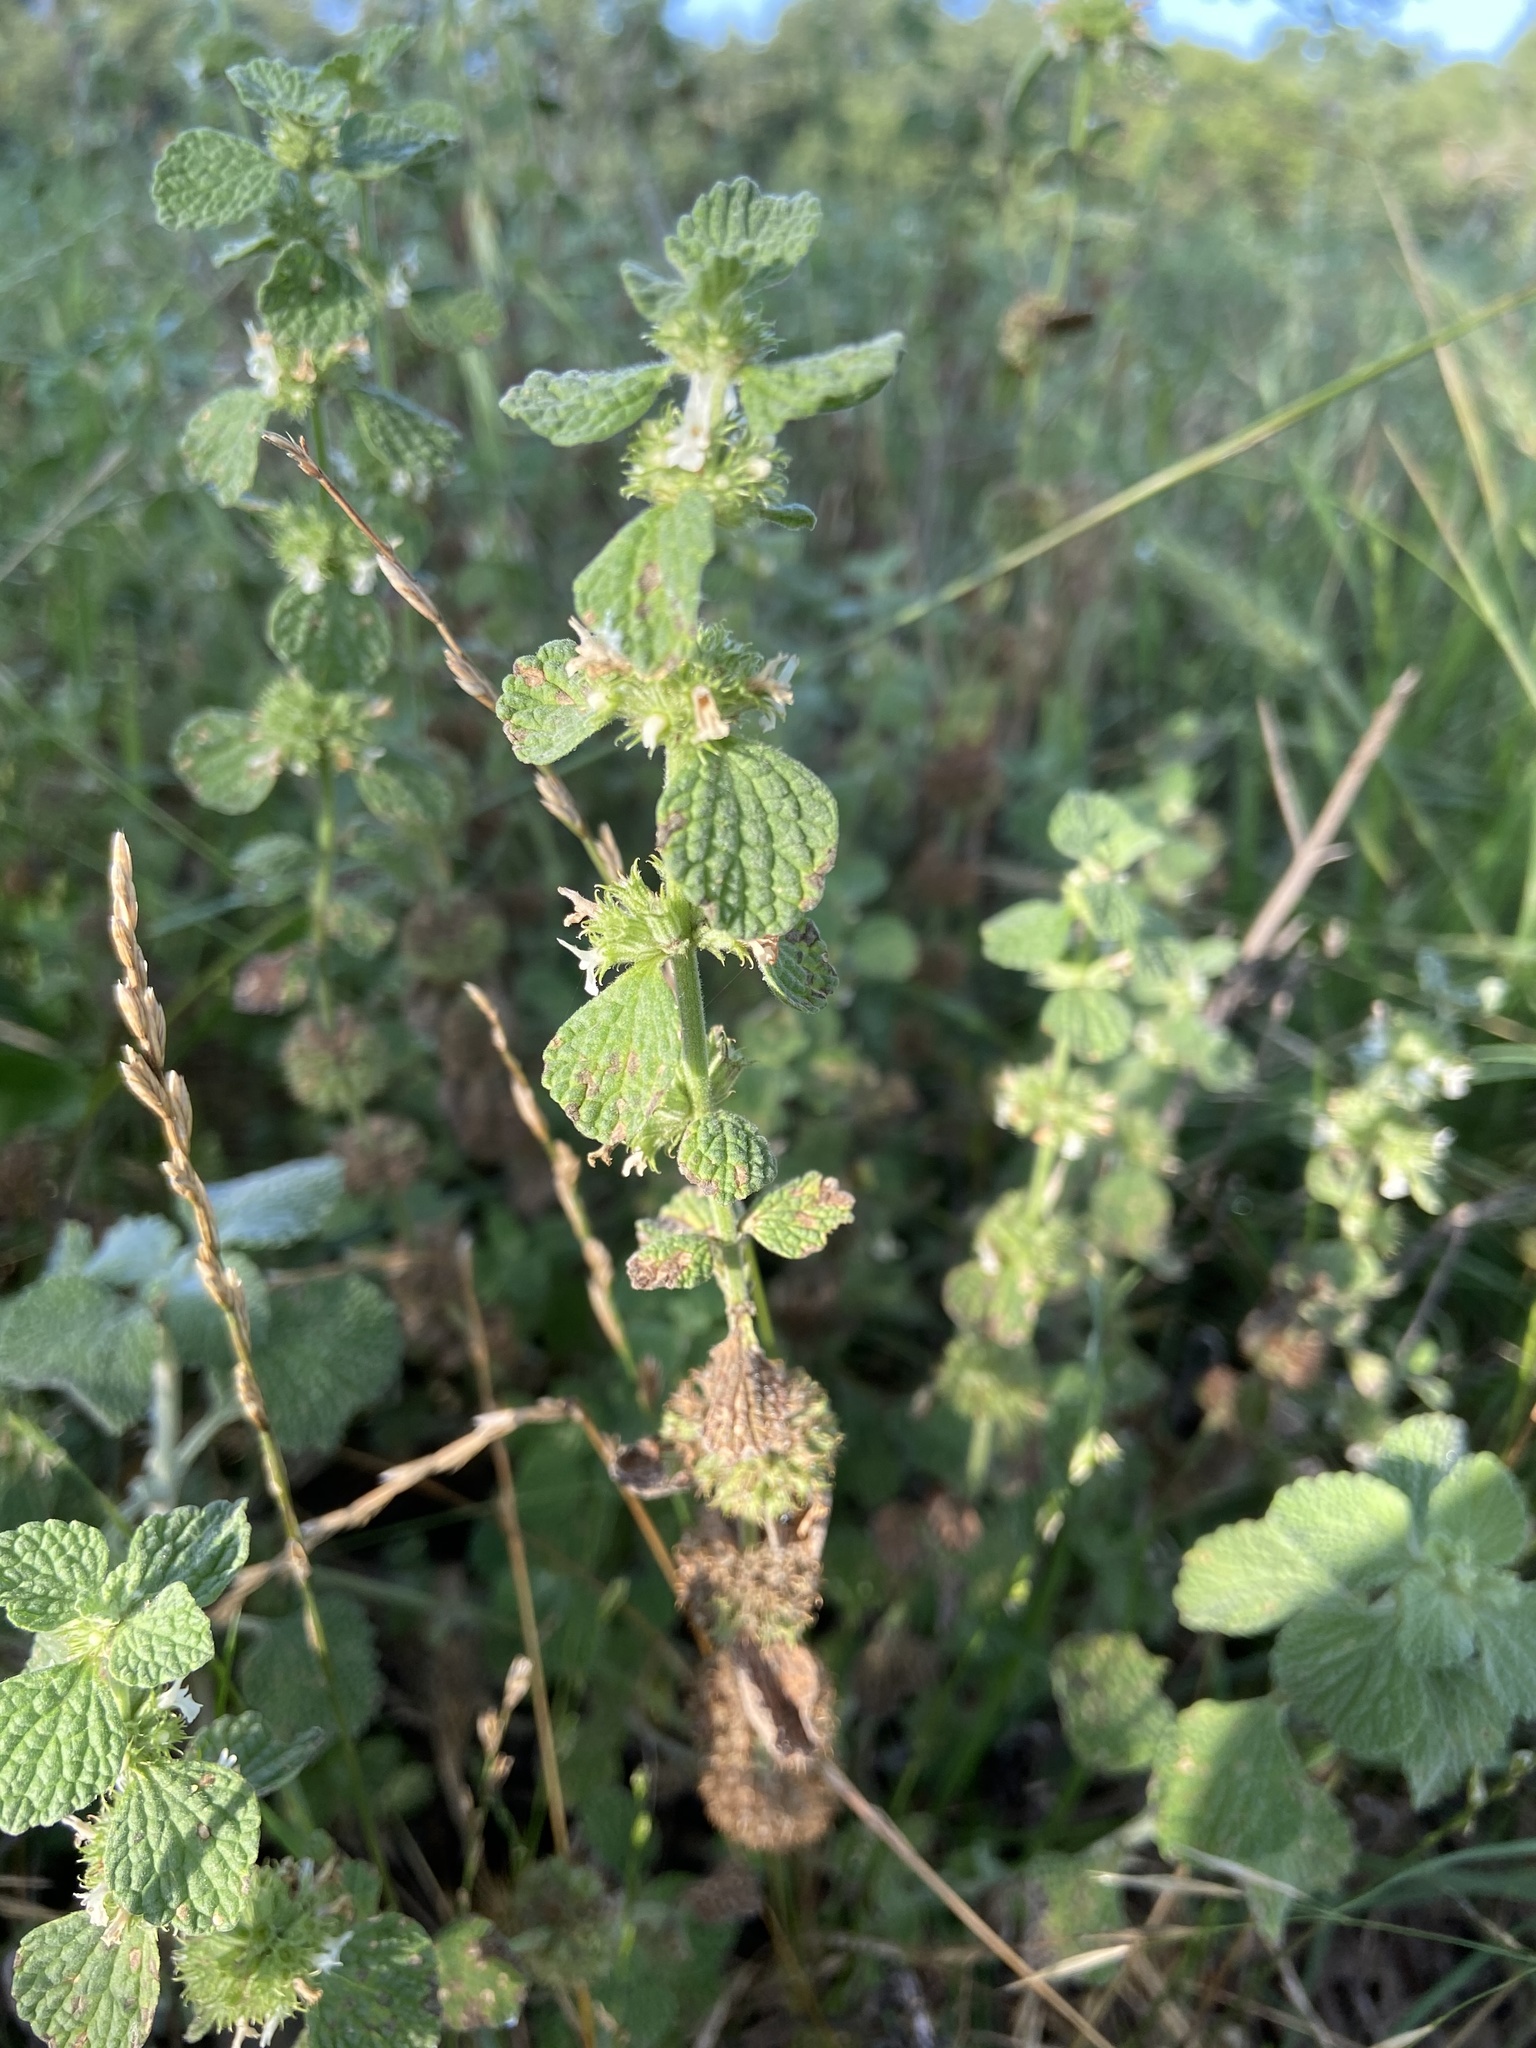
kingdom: Plantae
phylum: Tracheophyta
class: Magnoliopsida
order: Lamiales
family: Lamiaceae
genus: Marrubium
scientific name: Marrubium vulgare
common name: Horehound
